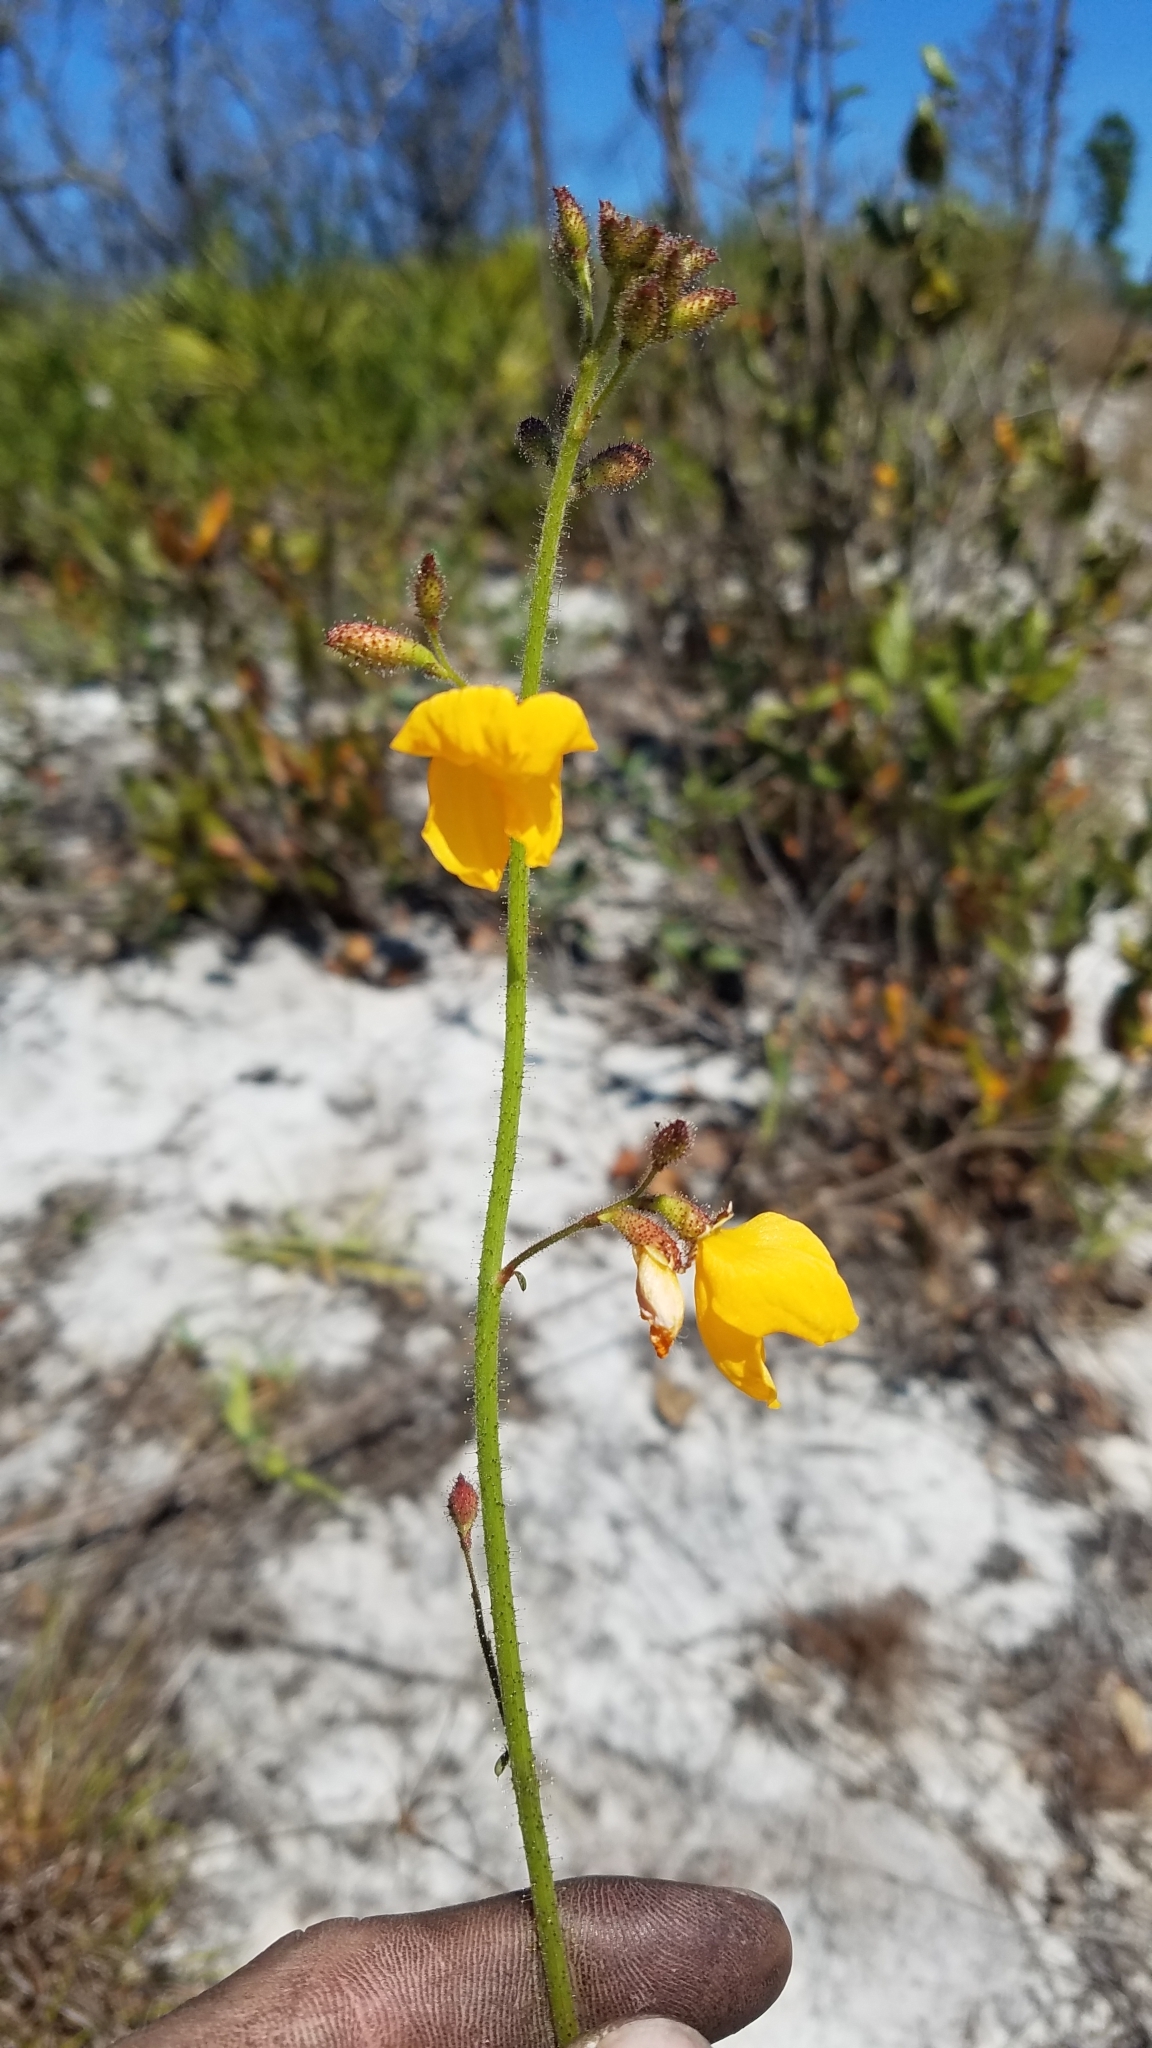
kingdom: Plantae
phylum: Tracheophyta
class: Magnoliopsida
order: Fabales
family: Fabaceae
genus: Chapmannia
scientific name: Chapmannia floridana
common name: Alicia
